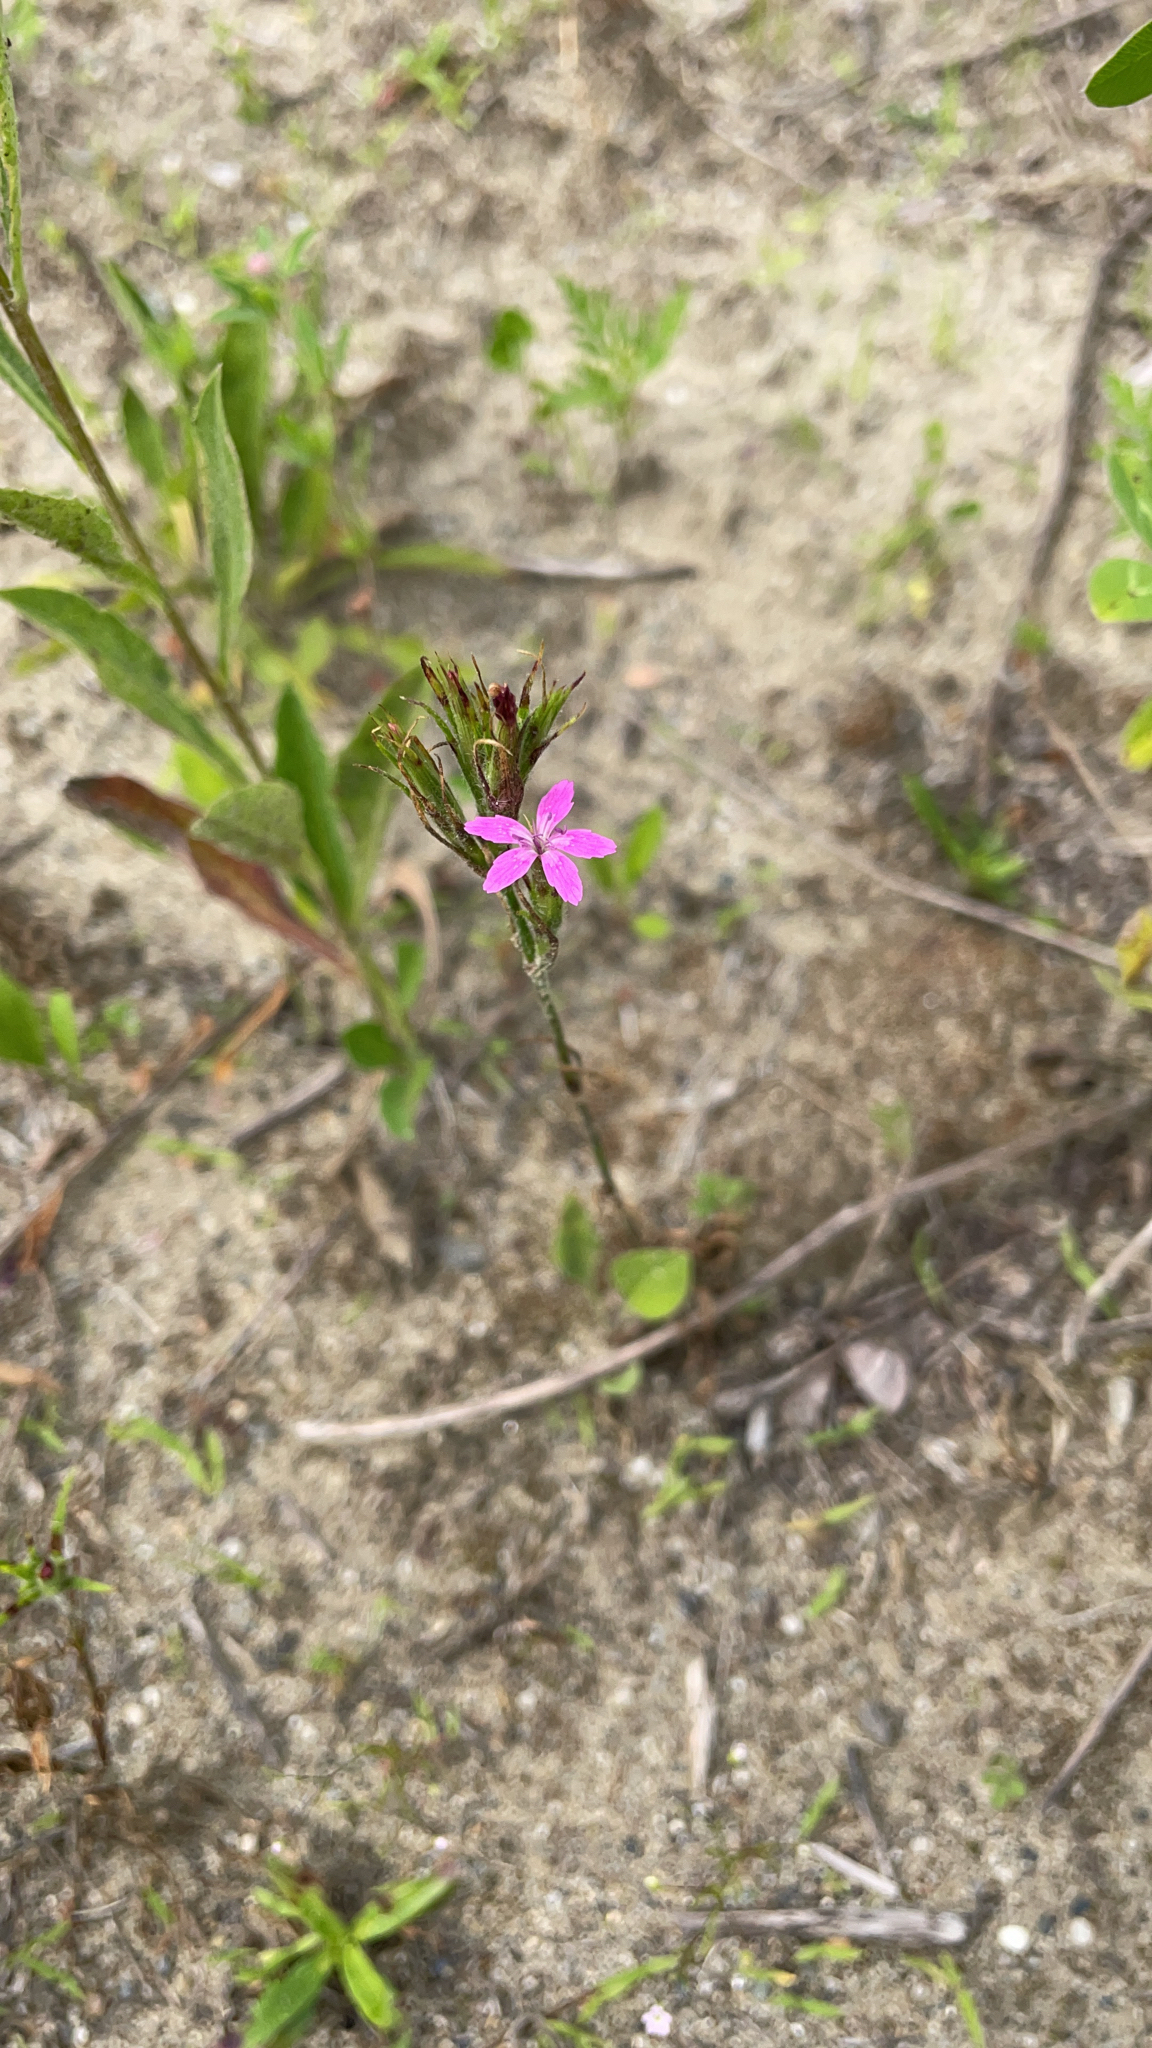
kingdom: Plantae
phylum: Tracheophyta
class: Magnoliopsida
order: Caryophyllales
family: Caryophyllaceae
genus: Dianthus
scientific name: Dianthus armeria
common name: Deptford pink
